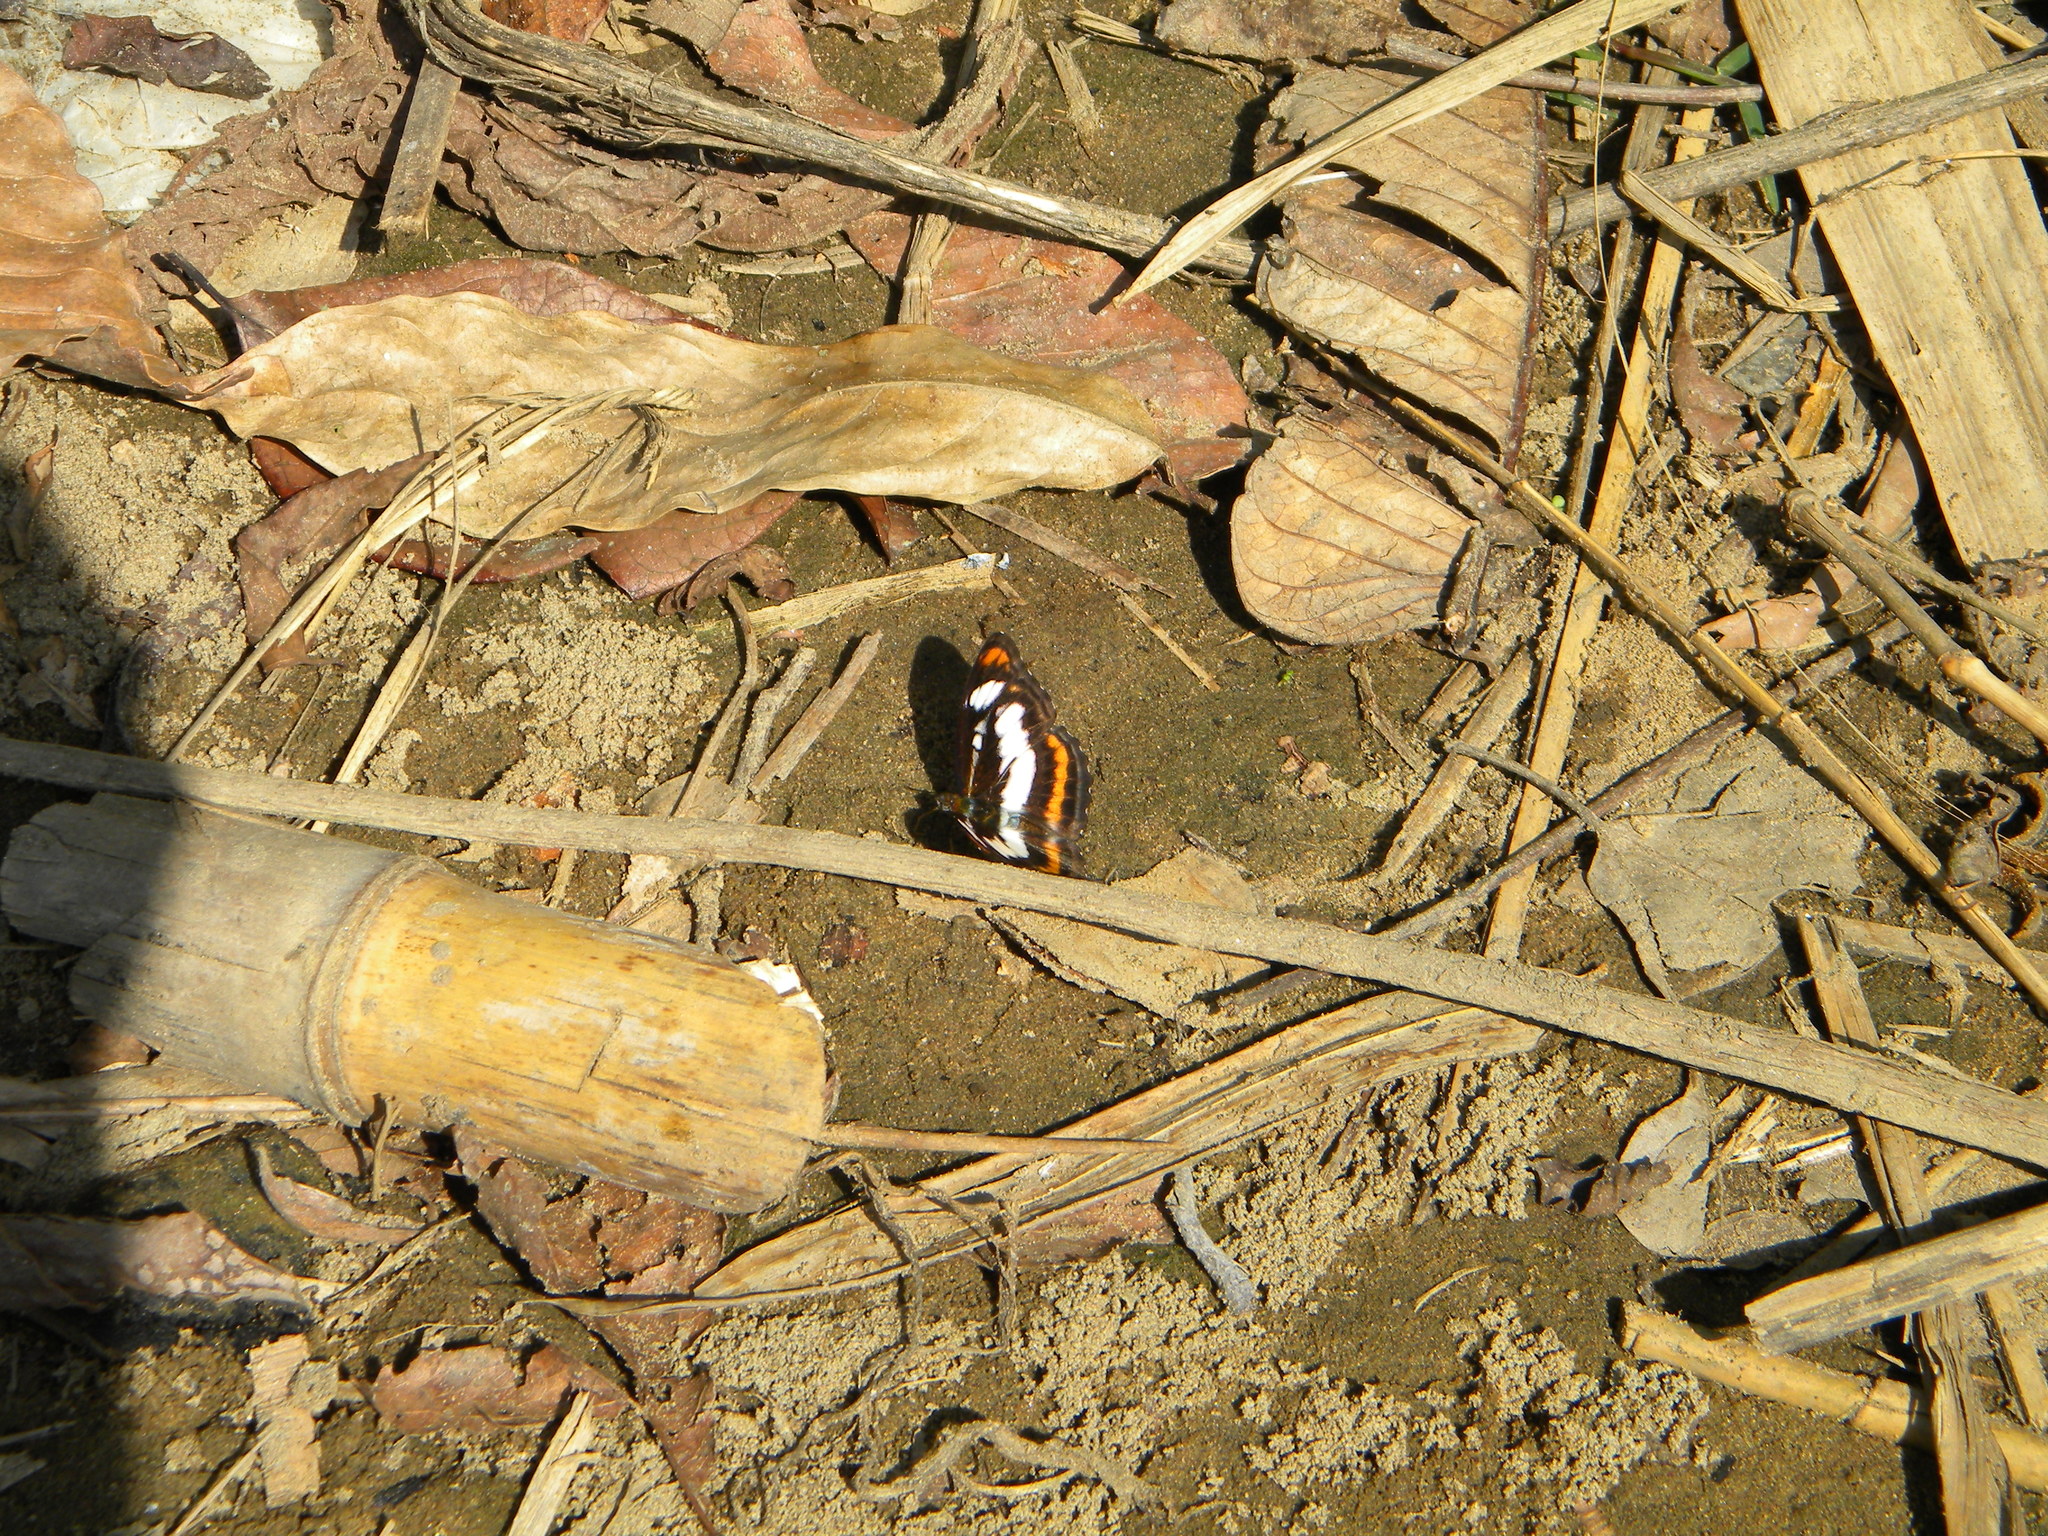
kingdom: Animalia
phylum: Arthropoda
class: Insecta
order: Lepidoptera
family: Nymphalidae
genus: Parathyma
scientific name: Parathyma nefte
